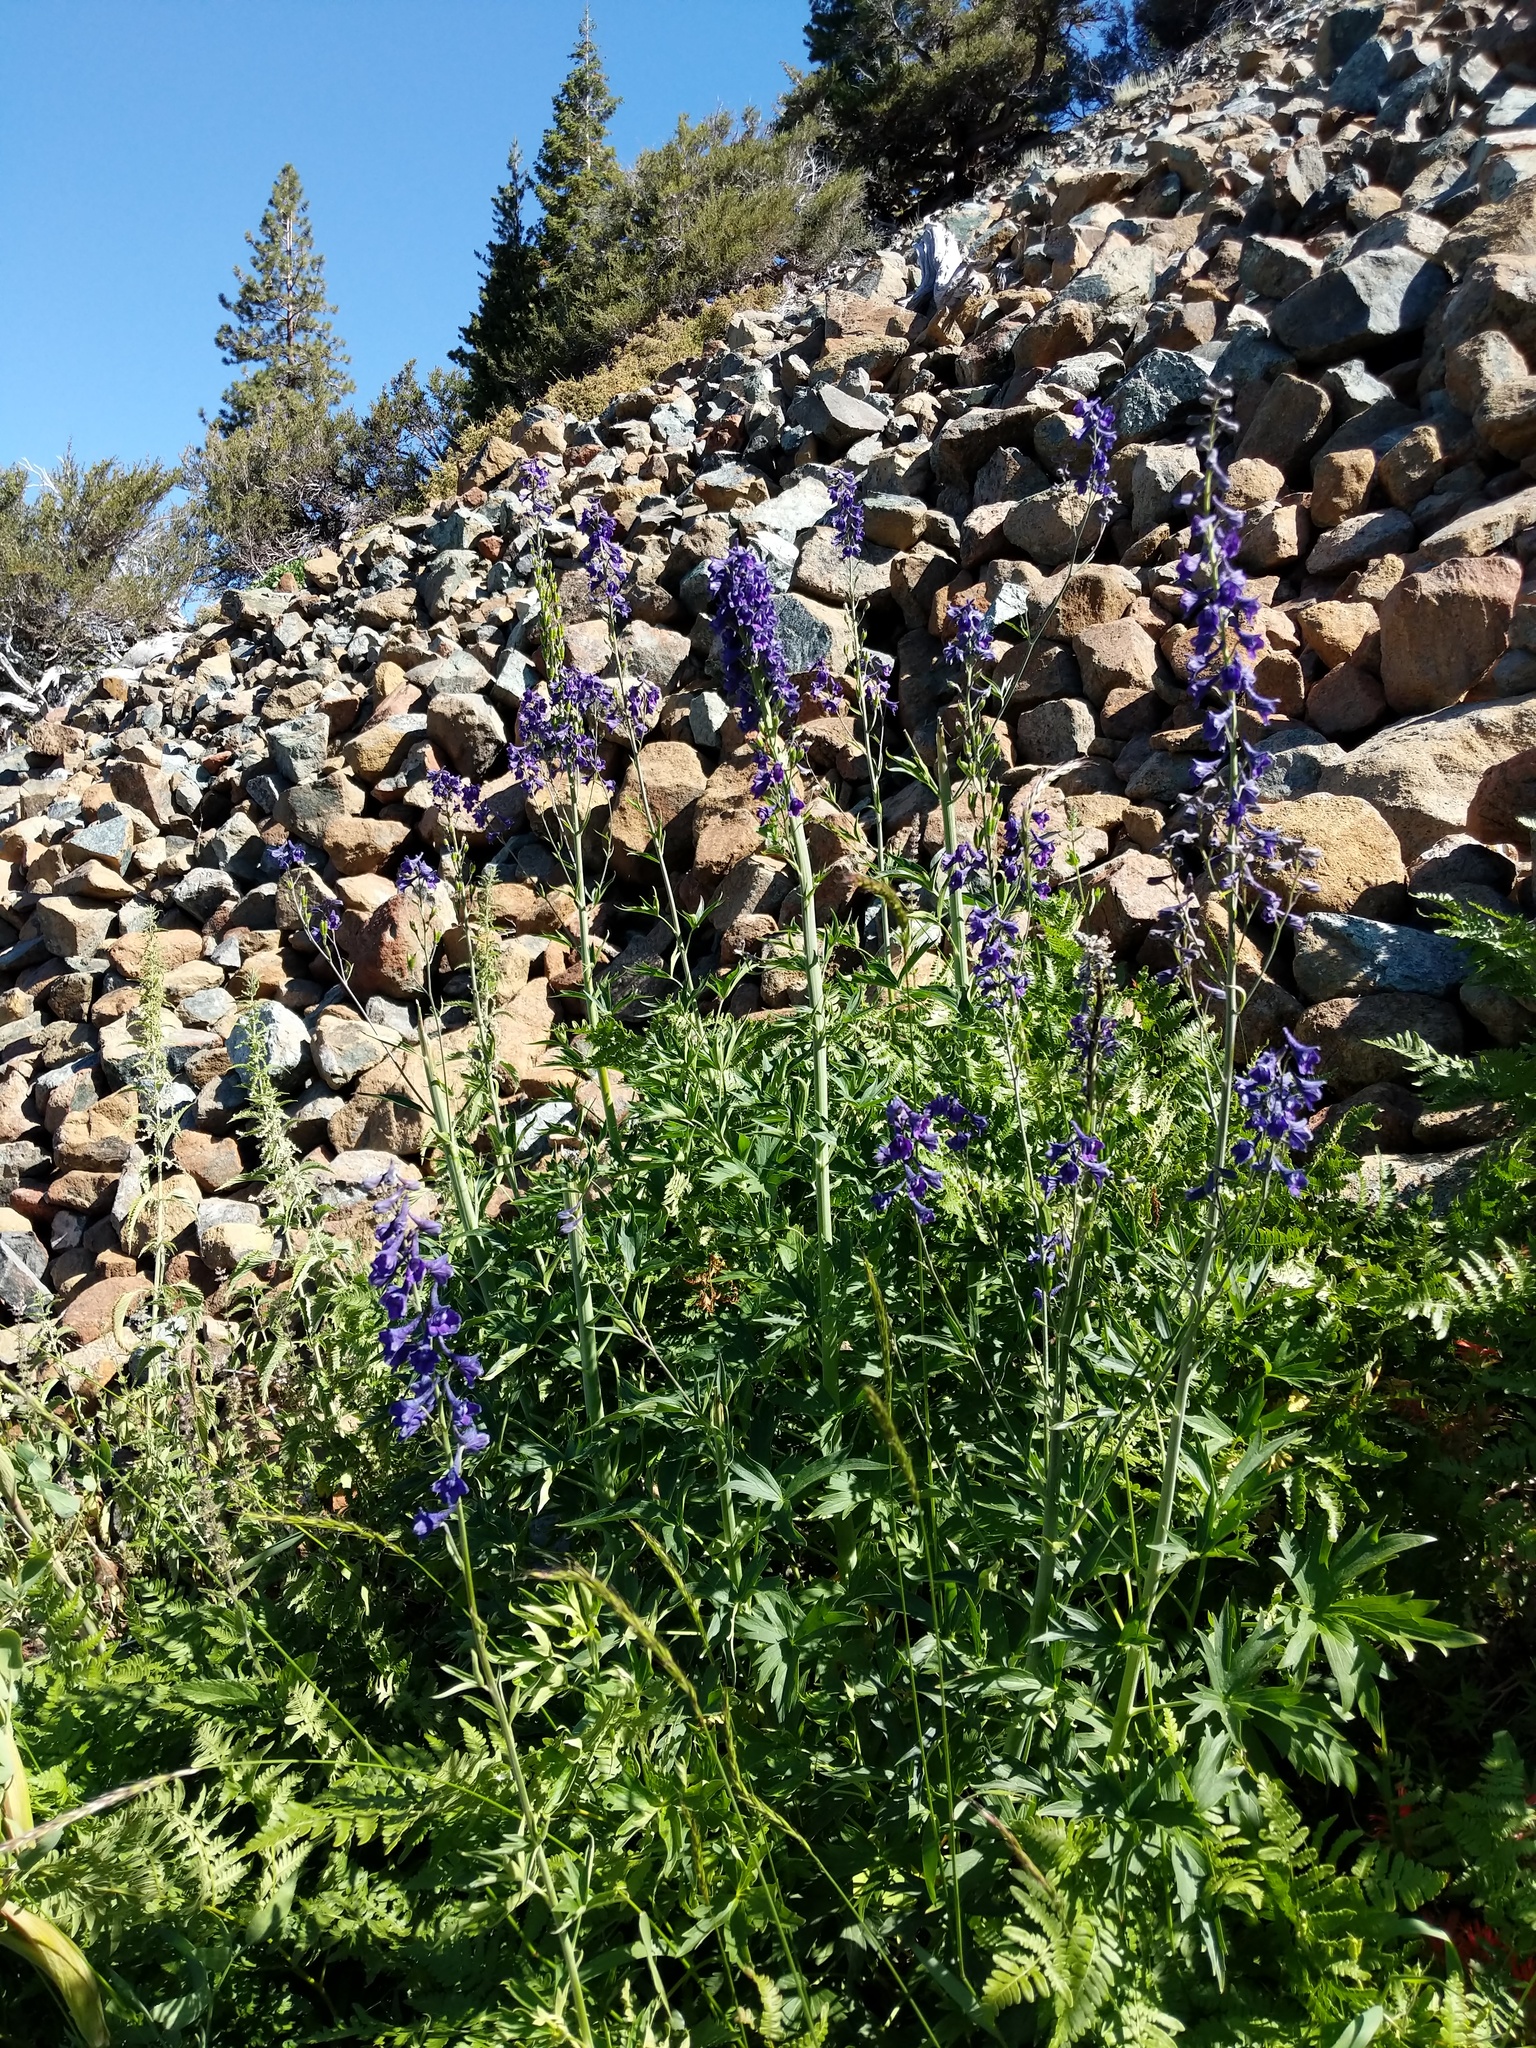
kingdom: Plantae
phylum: Tracheophyta
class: Magnoliopsida
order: Ranunculales
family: Ranunculaceae
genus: Delphinium
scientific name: Delphinium glaucum
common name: Brown's larkspur
